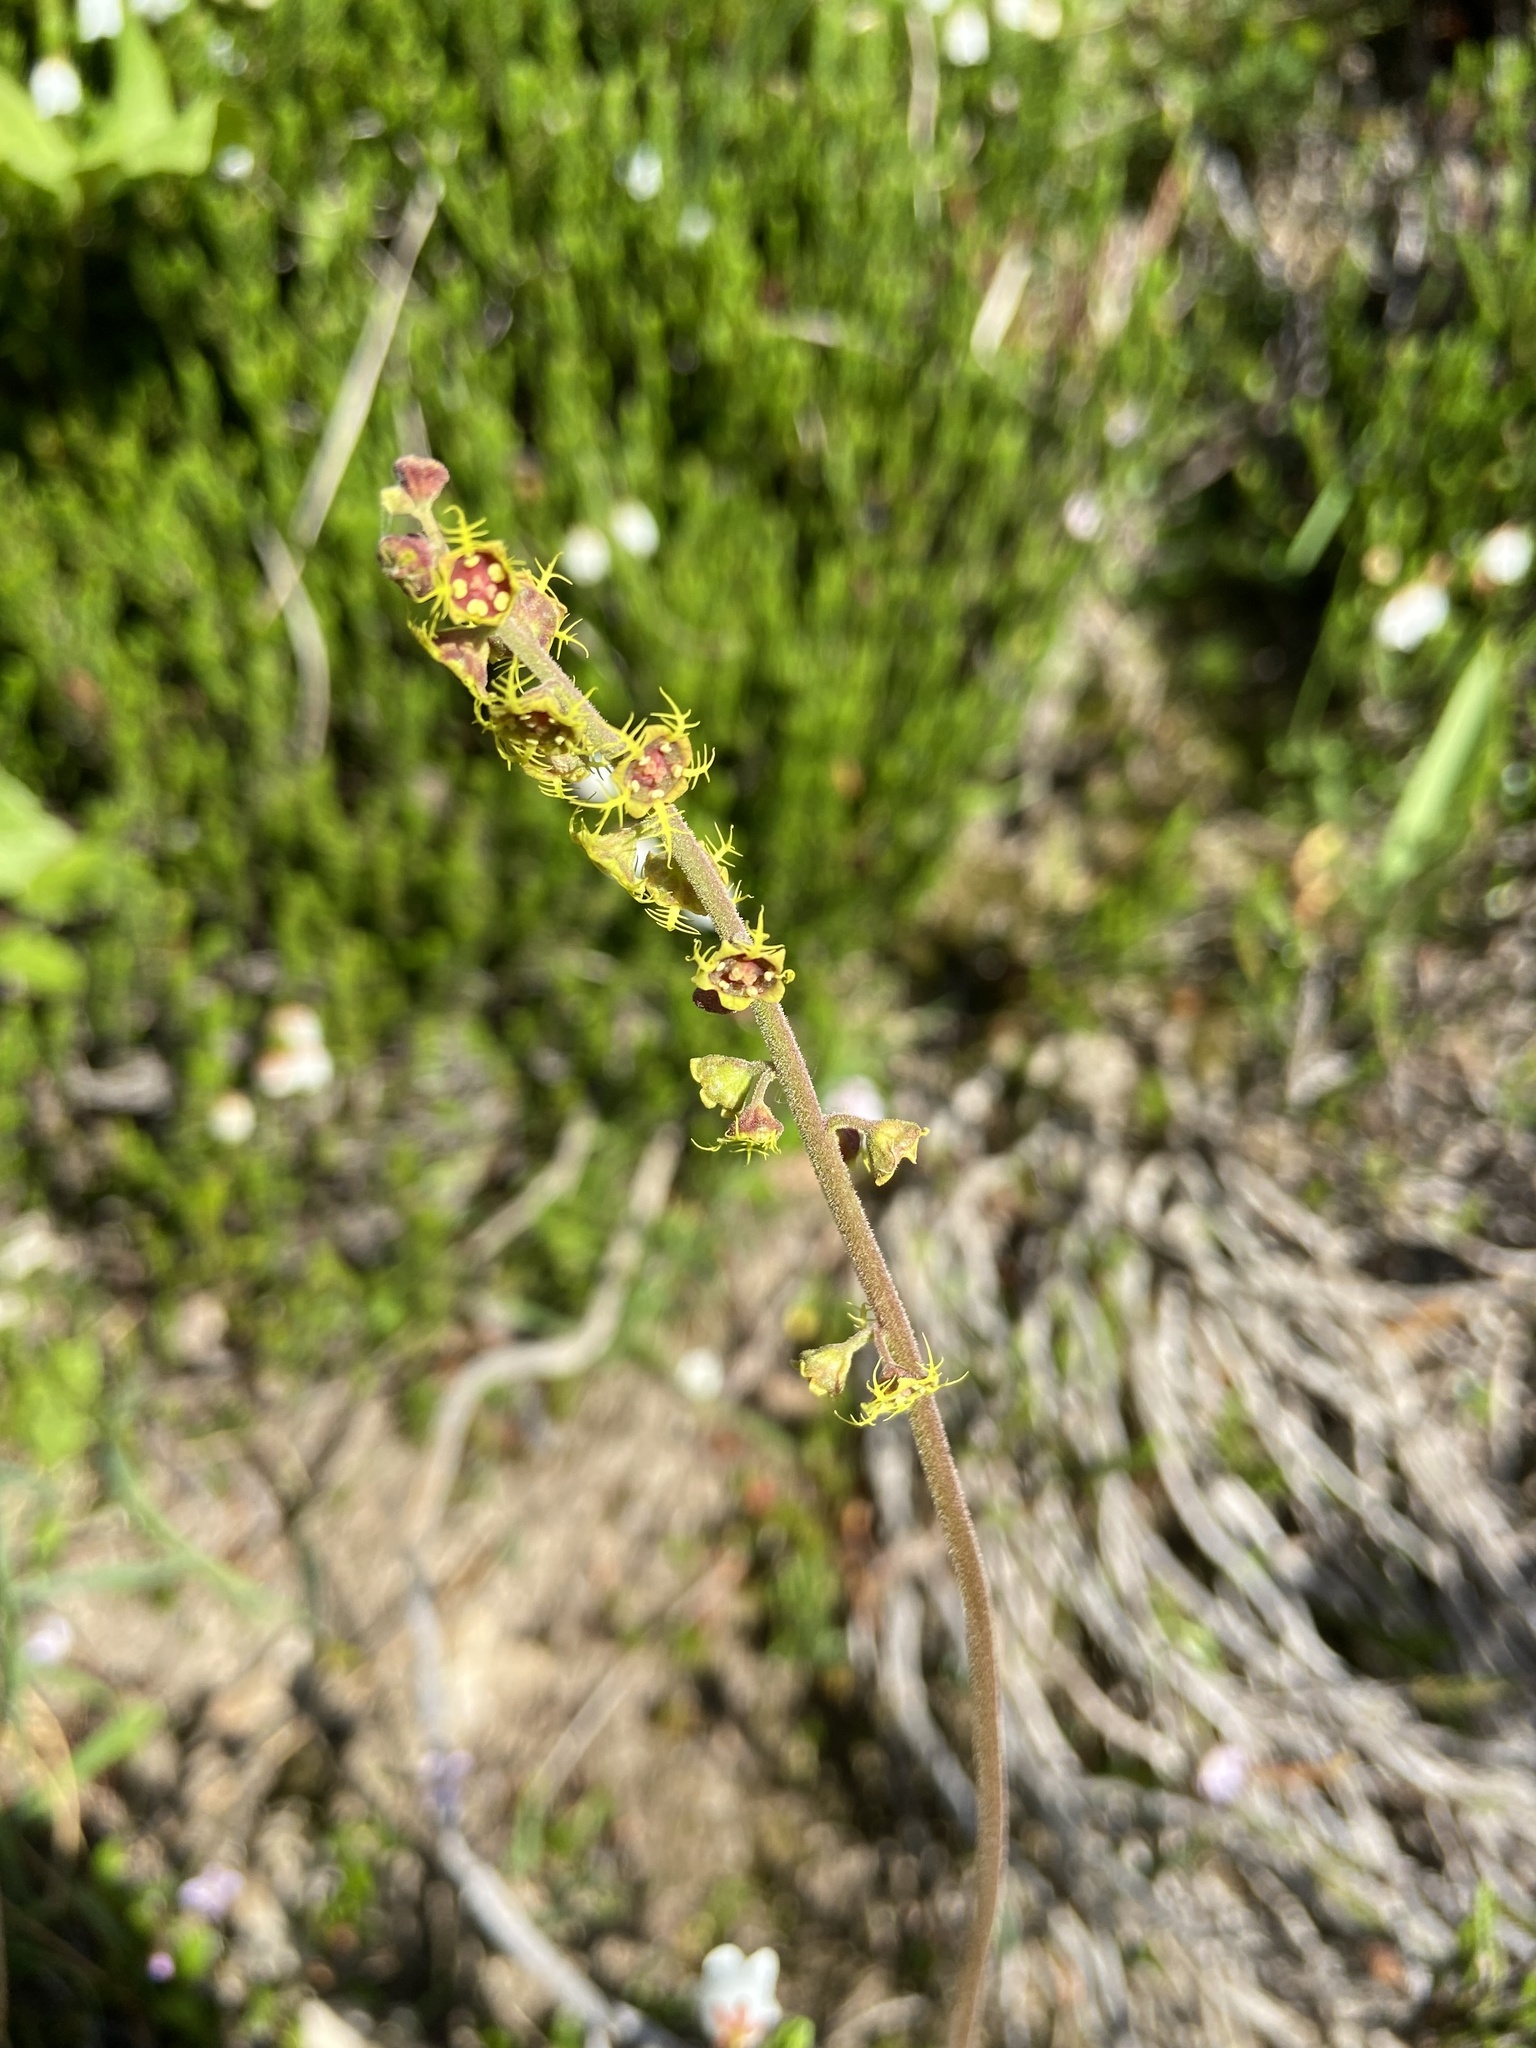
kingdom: Plantae
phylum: Tracheophyta
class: Magnoliopsida
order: Saxifragales
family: Saxifragaceae
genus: Pectiantia
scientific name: Pectiantia pentandra
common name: Alpine bishop's-cap
